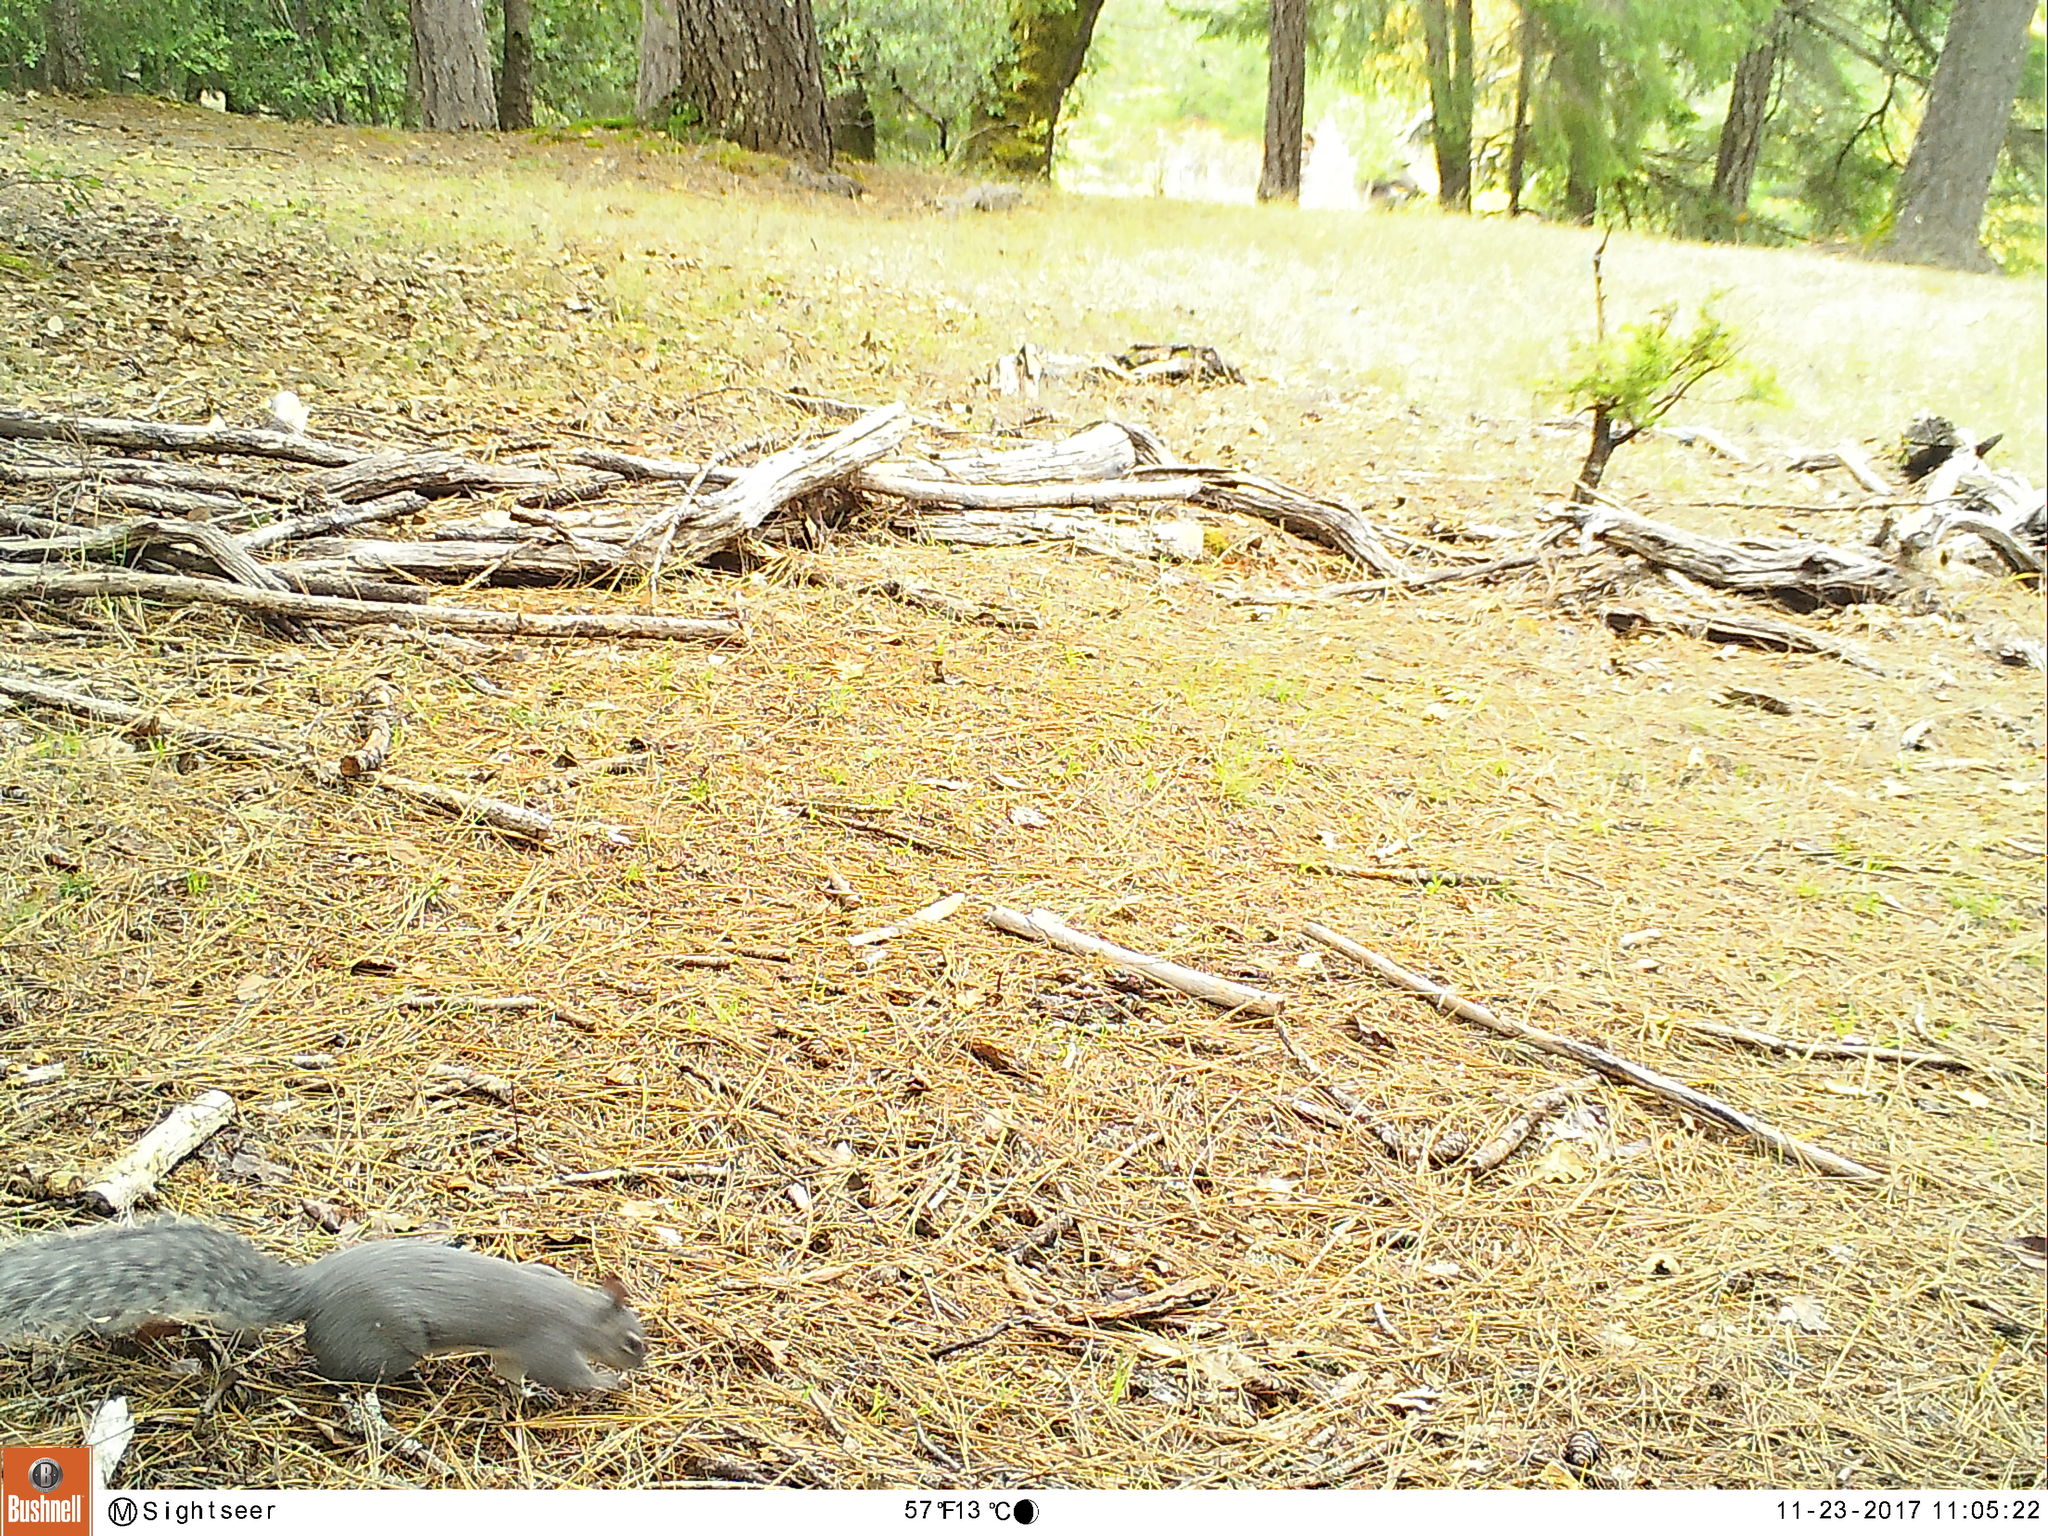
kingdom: Animalia
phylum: Chordata
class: Mammalia
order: Rodentia
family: Sciuridae
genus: Sciurus
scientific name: Sciurus griseus
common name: Western gray squirrel
